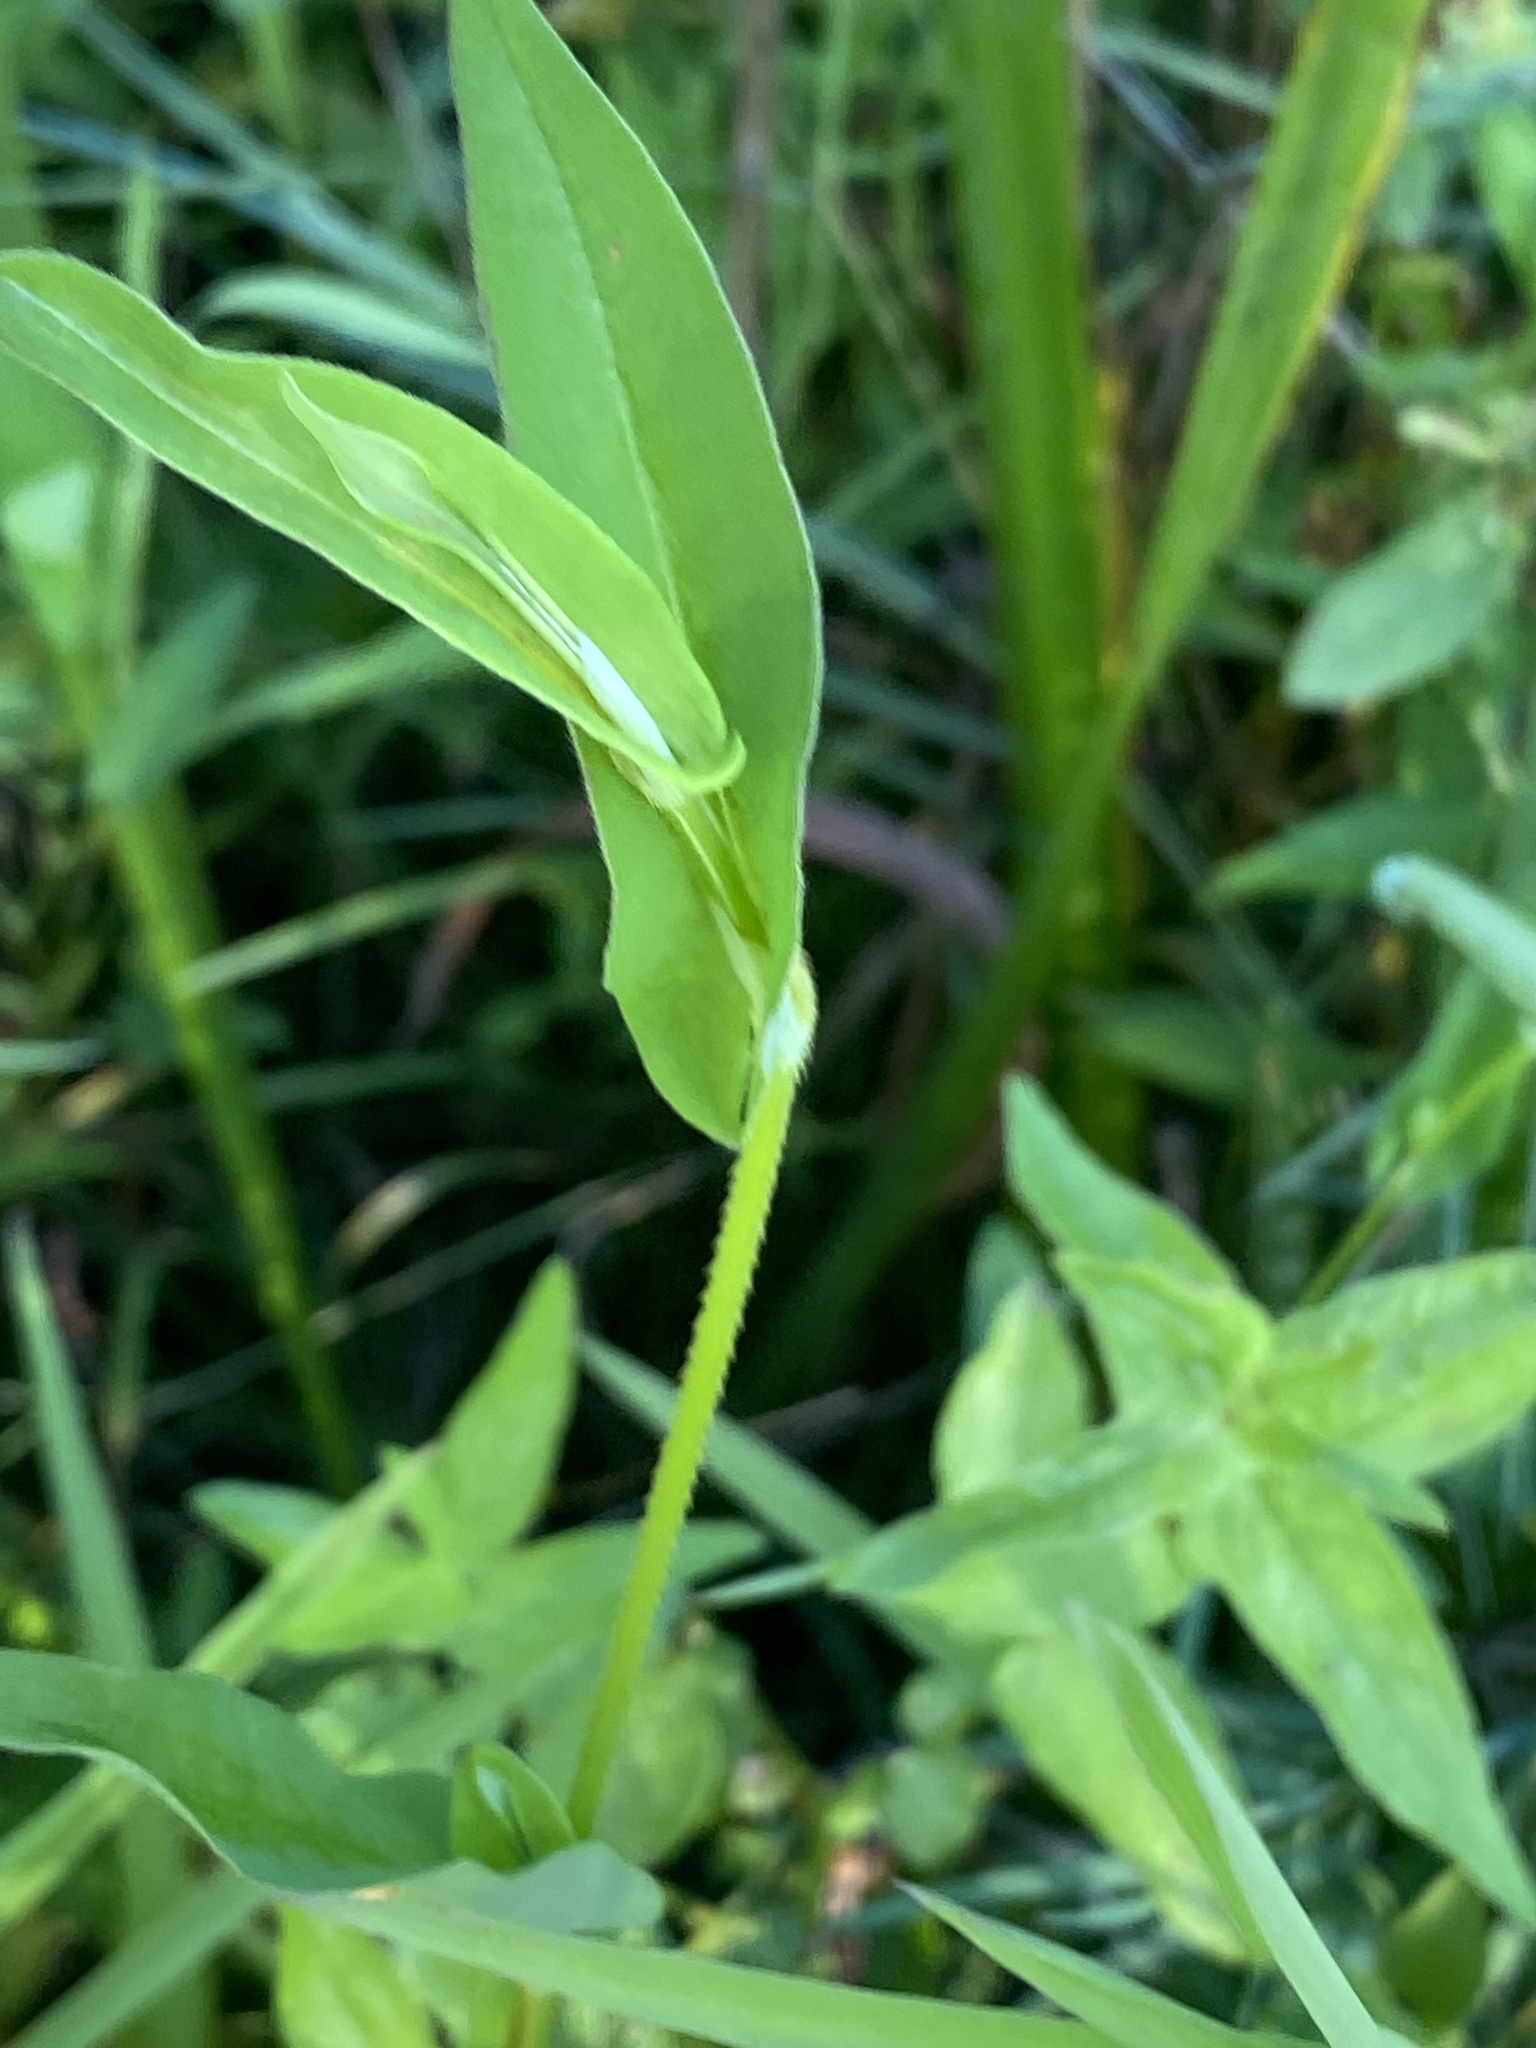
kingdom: Plantae
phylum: Tracheophyta
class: Magnoliopsida
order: Caryophyllales
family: Polygonaceae
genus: Persicaria
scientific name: Persicaria sagittata
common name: American tearthumb
